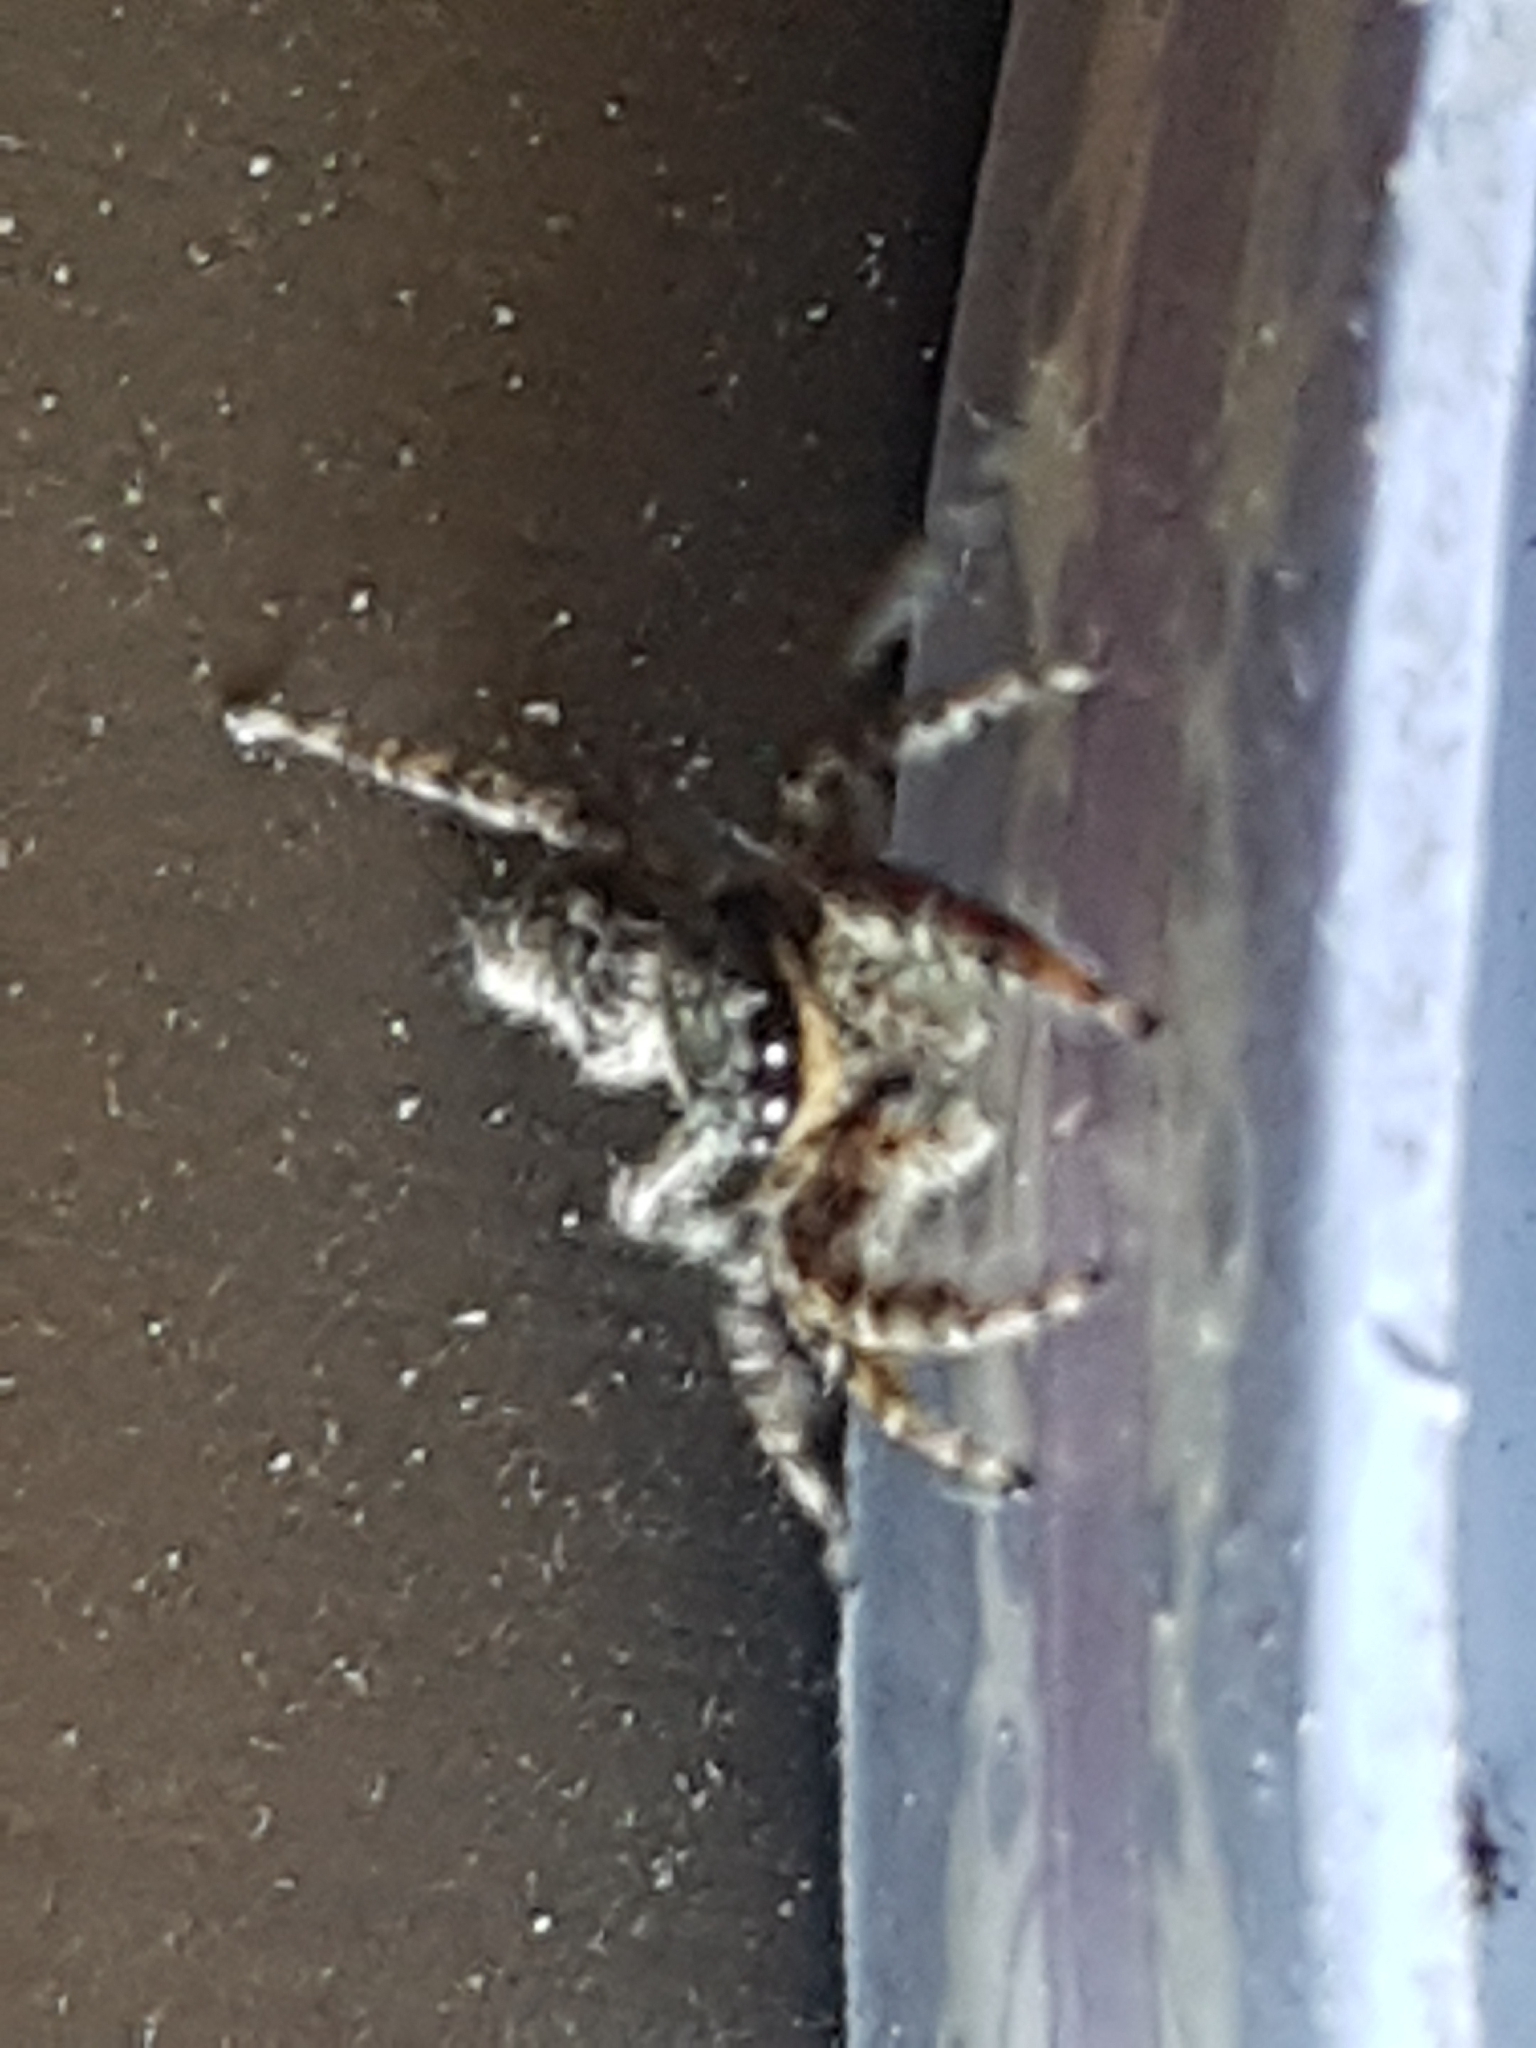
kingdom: Animalia
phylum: Arthropoda
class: Arachnida
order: Araneae
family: Salticidae
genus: Marpissa
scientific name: Marpissa muscosa
